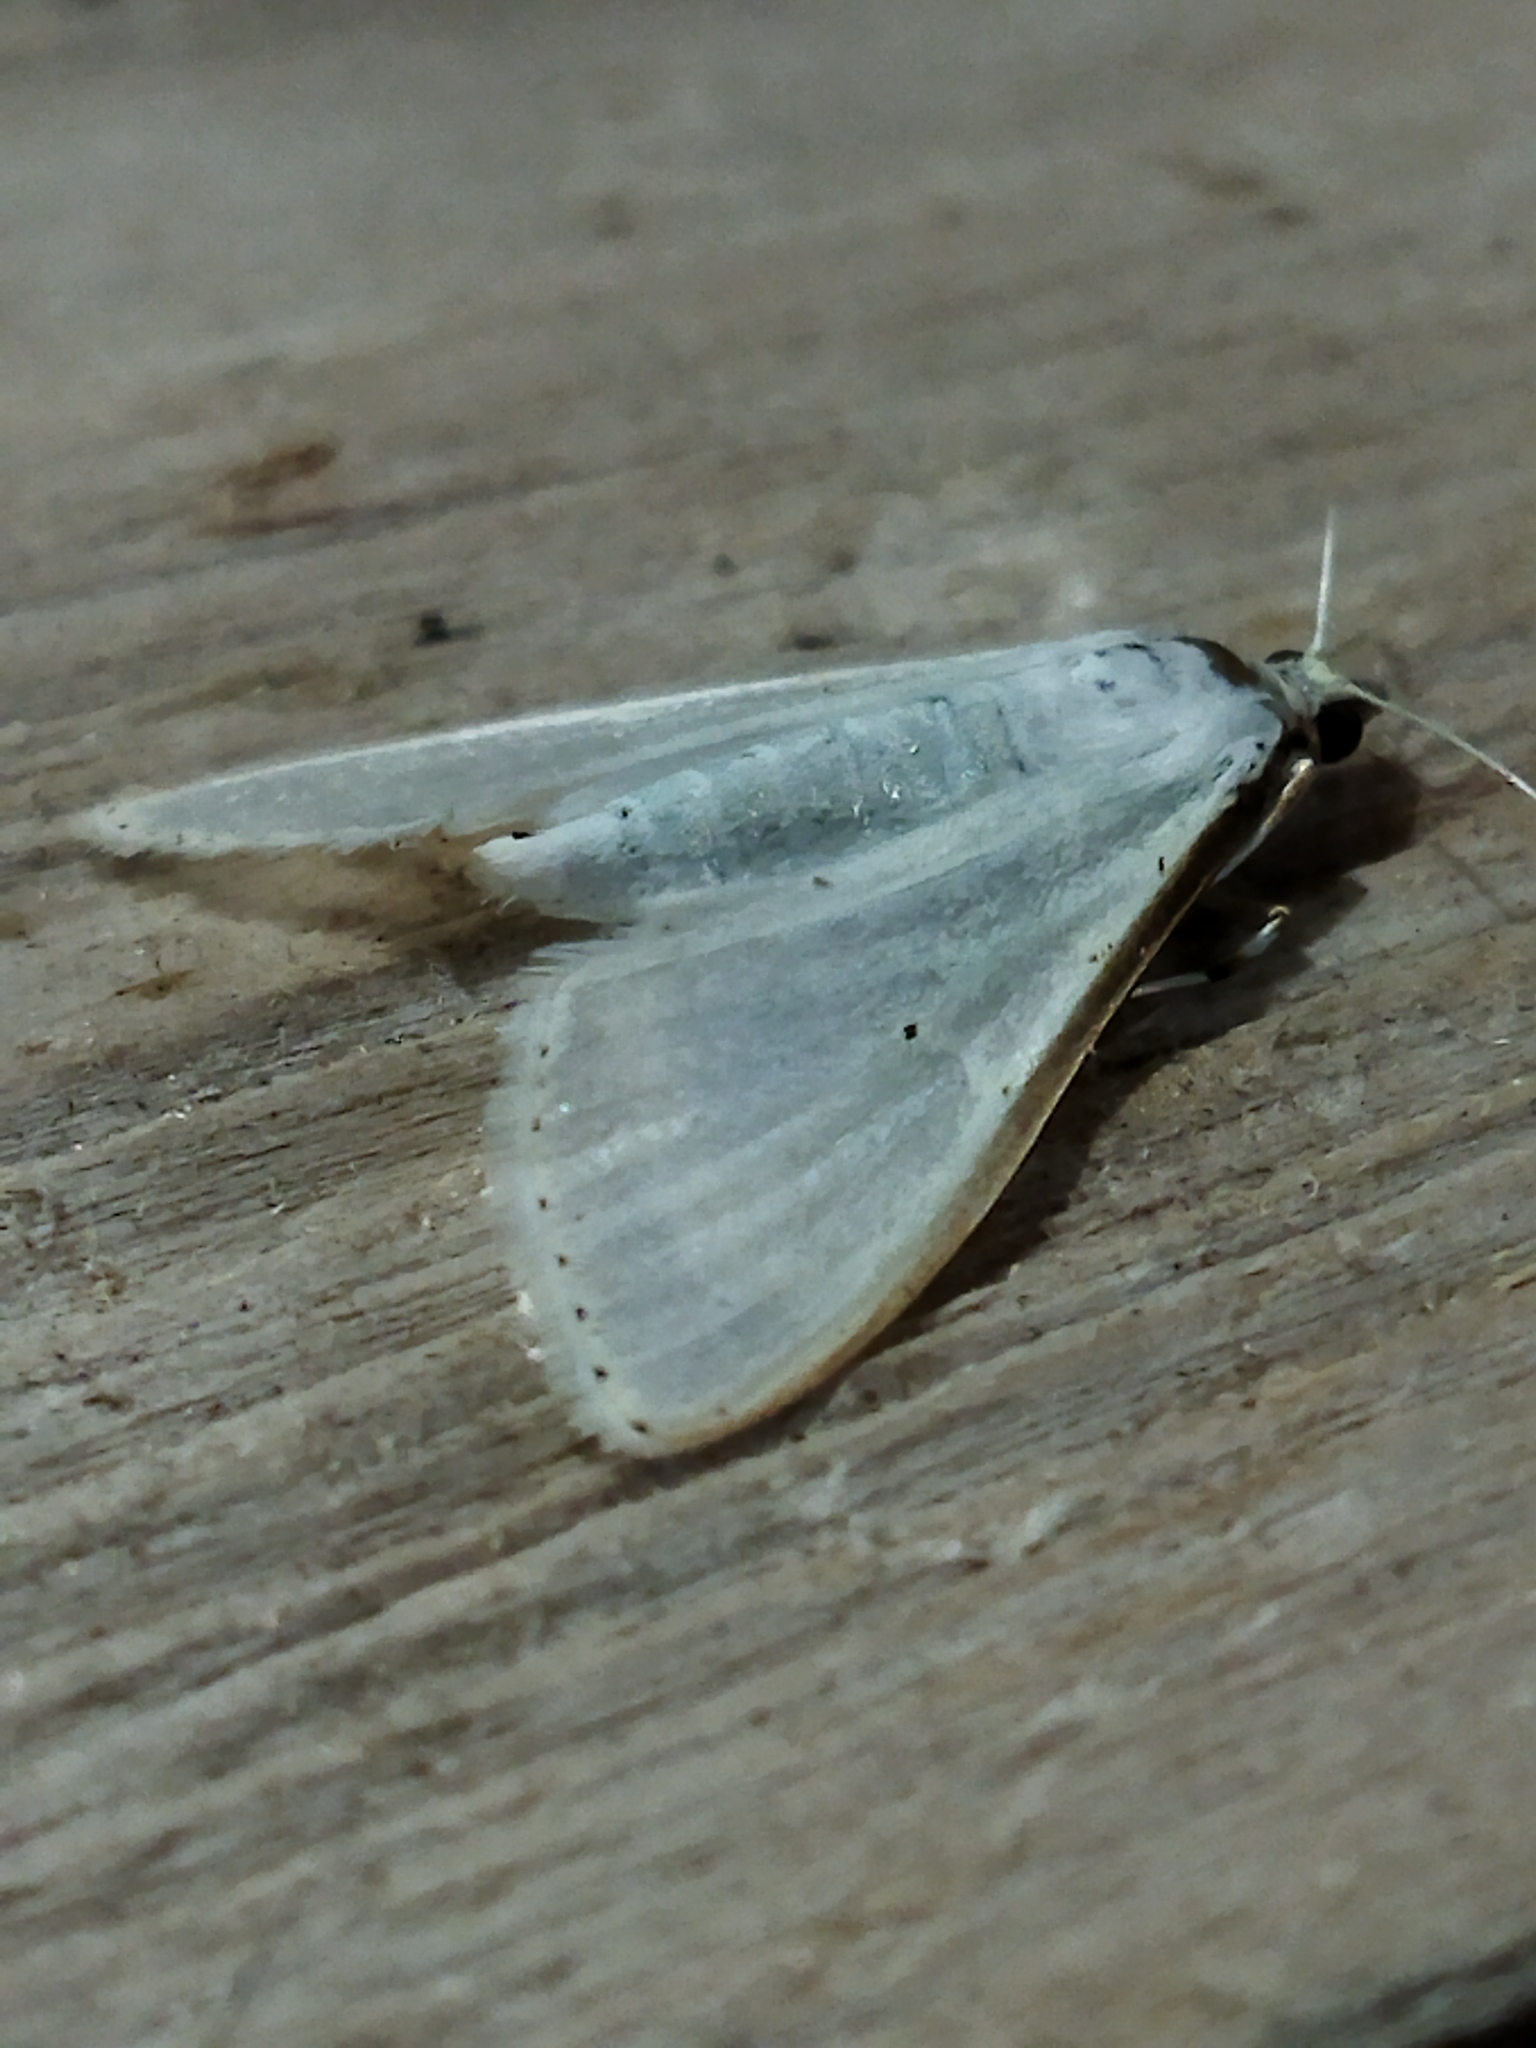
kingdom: Animalia
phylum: Arthropoda
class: Insecta
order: Lepidoptera
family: Crambidae
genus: Palpita
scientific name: Palpita vitrealis
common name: Olive-tree pearl
